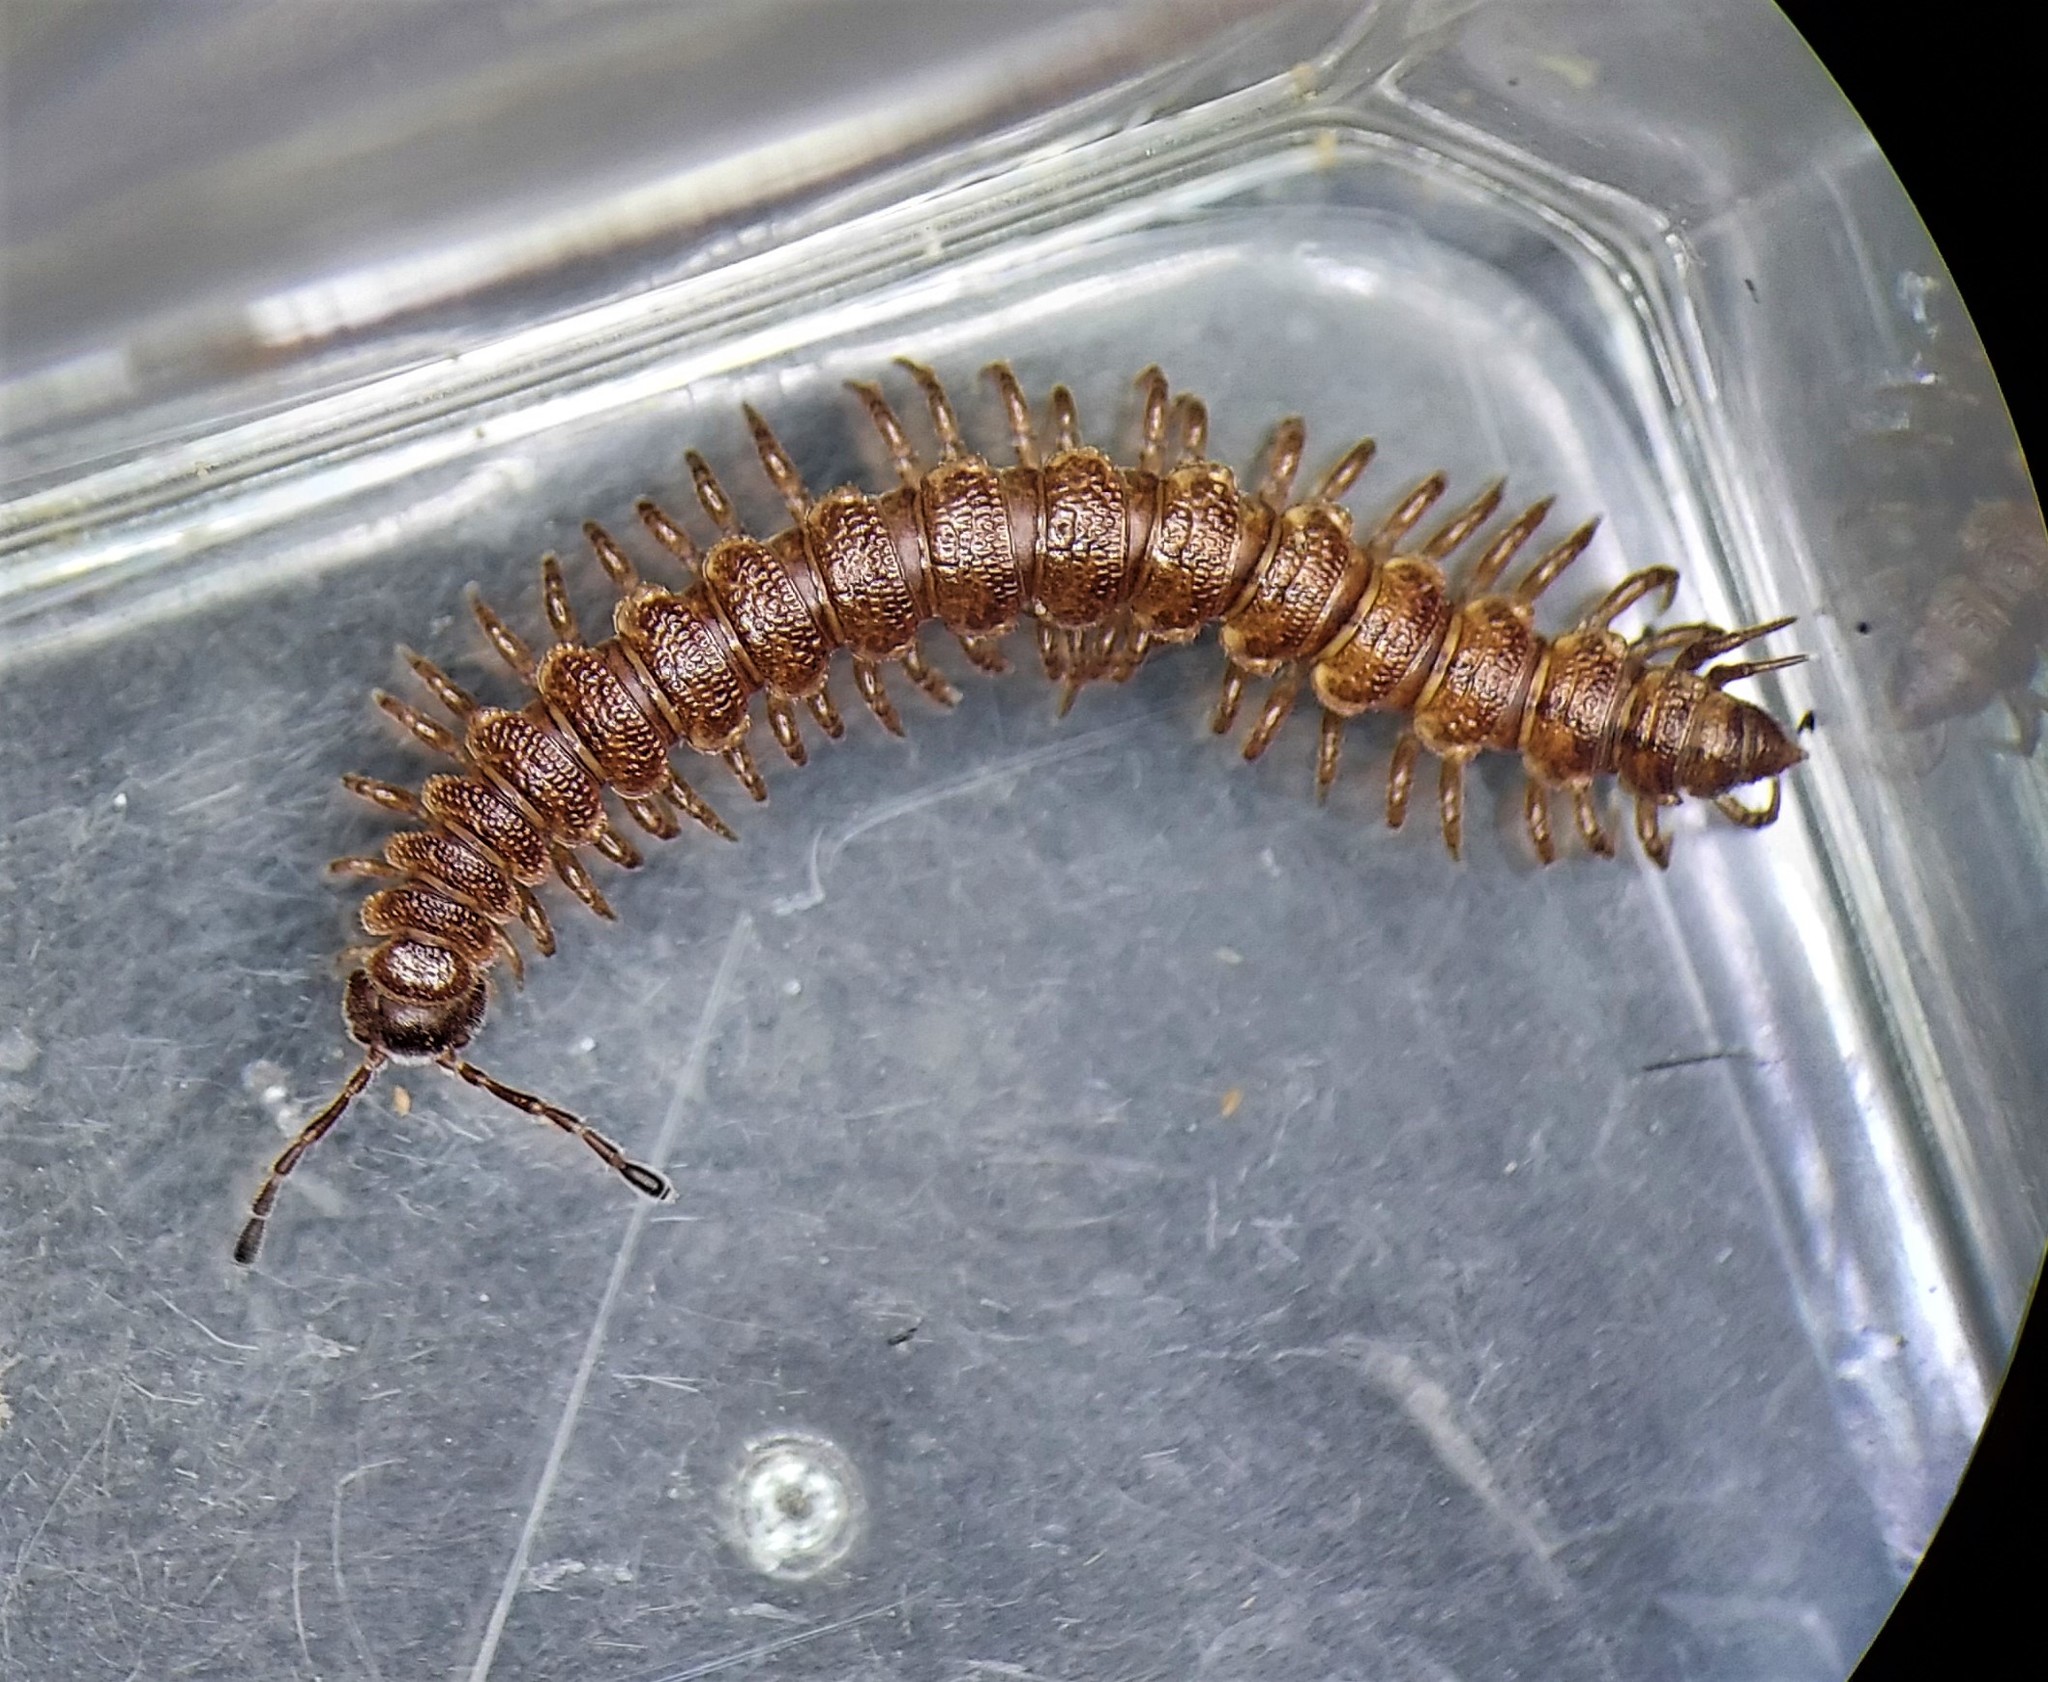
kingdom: Animalia
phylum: Arthropoda
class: Diplopoda
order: Polydesmida
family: Polydesmidae
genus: Scytonotus
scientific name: Scytonotus granulatus
